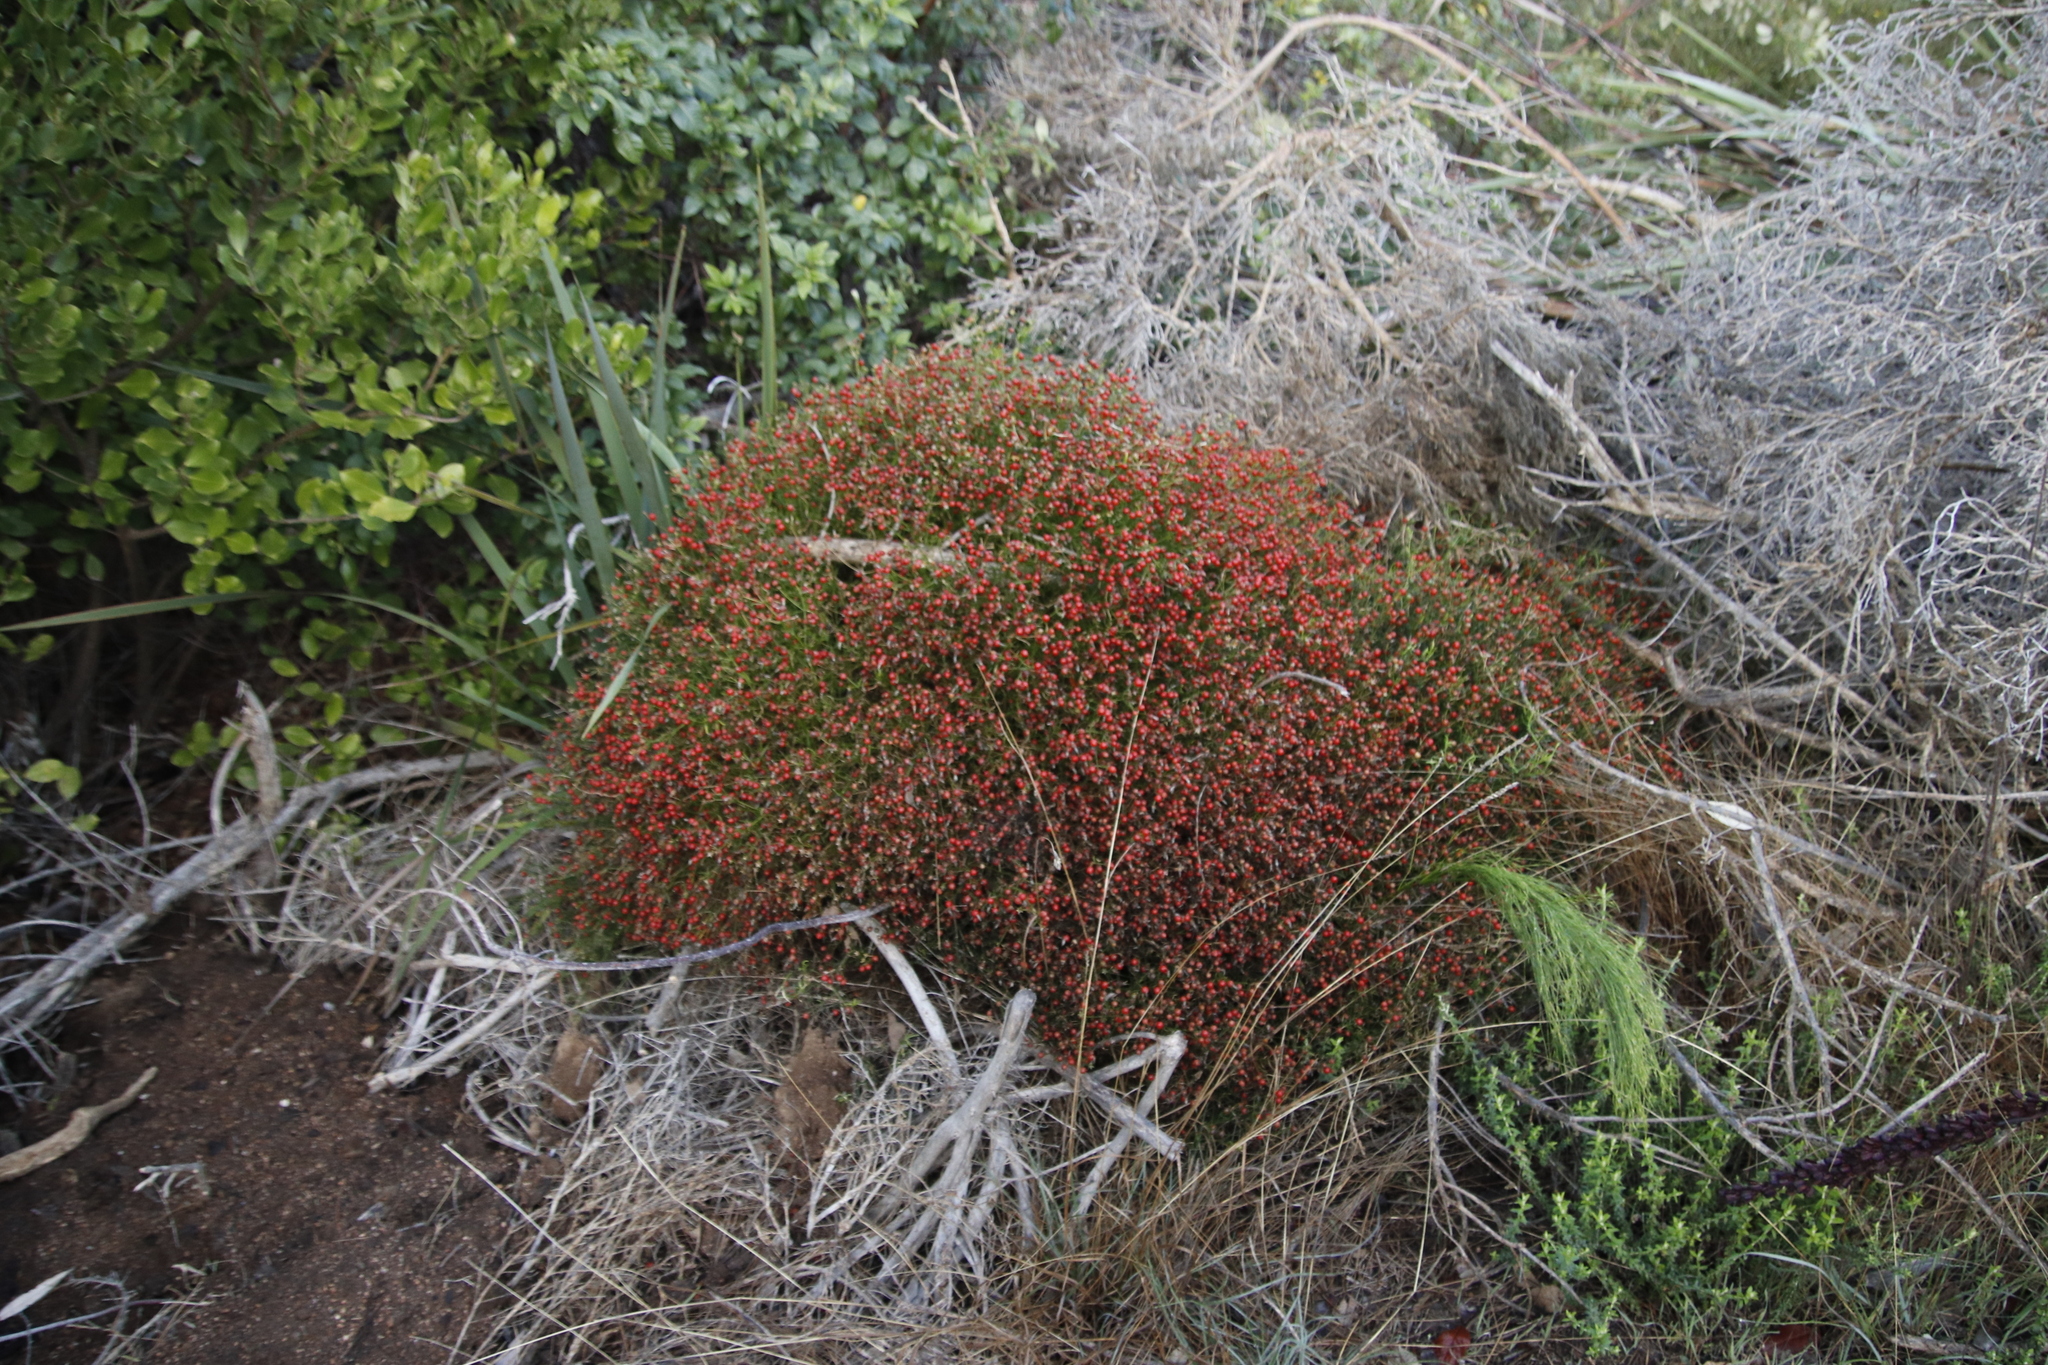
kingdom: Plantae
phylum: Tracheophyta
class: Magnoliopsida
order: Gentianales
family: Gentianaceae
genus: Chironia
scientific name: Chironia baccifera
